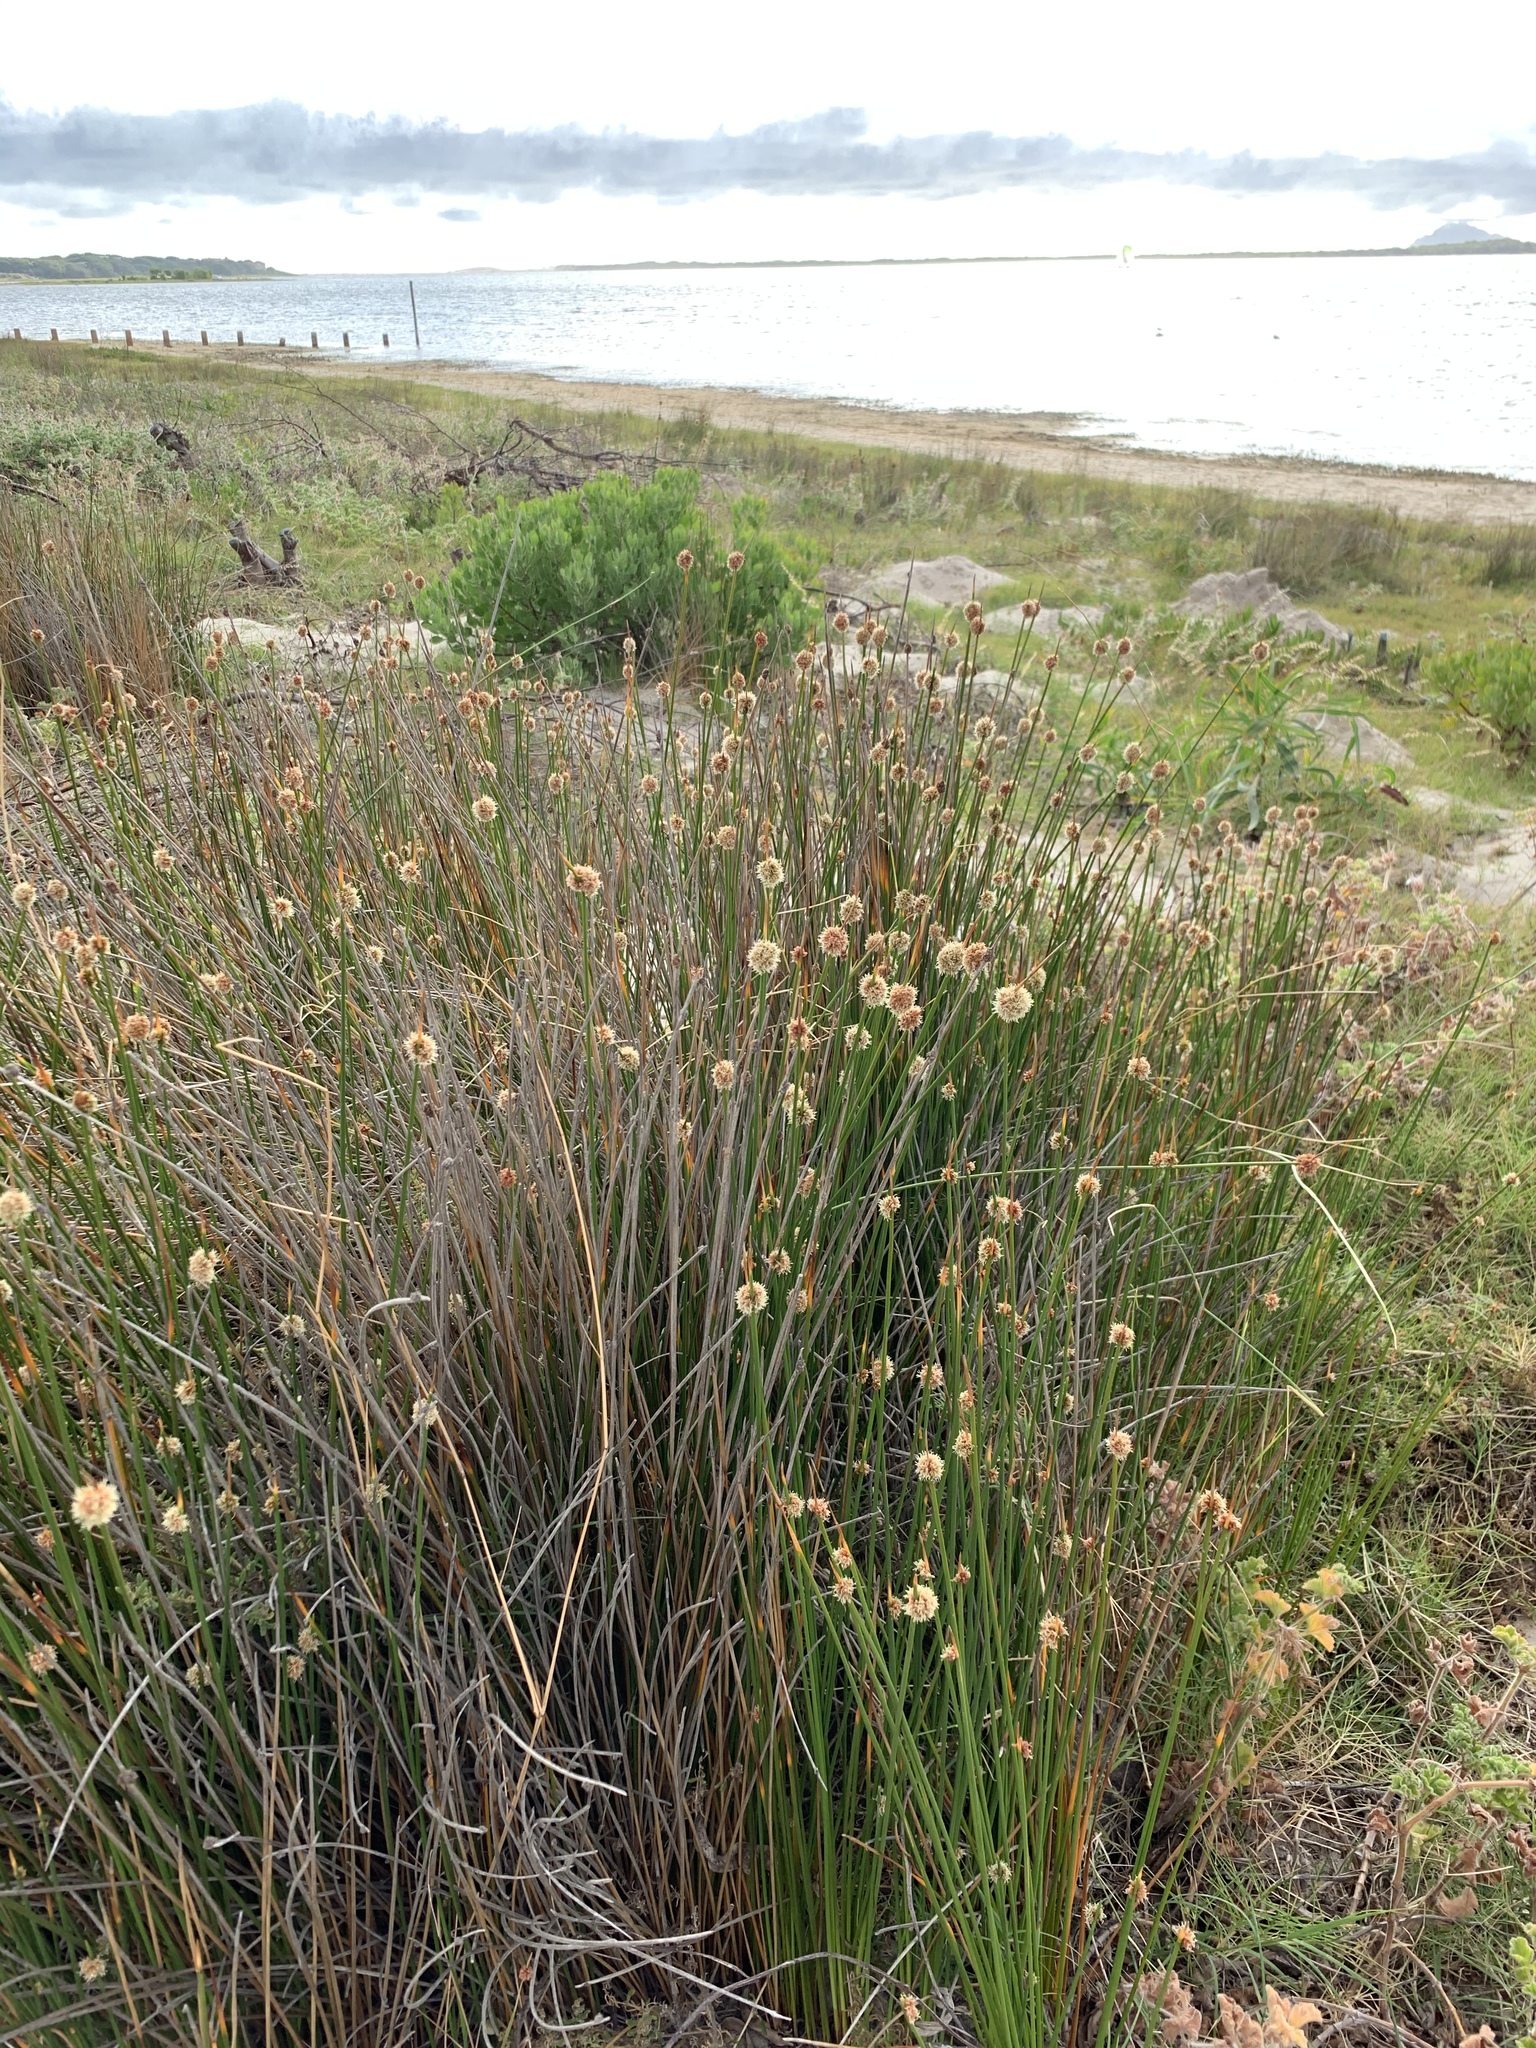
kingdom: Plantae
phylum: Tracheophyta
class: Liliopsida
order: Poales
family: Cyperaceae
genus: Ficinia
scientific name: Ficinia nodosa
